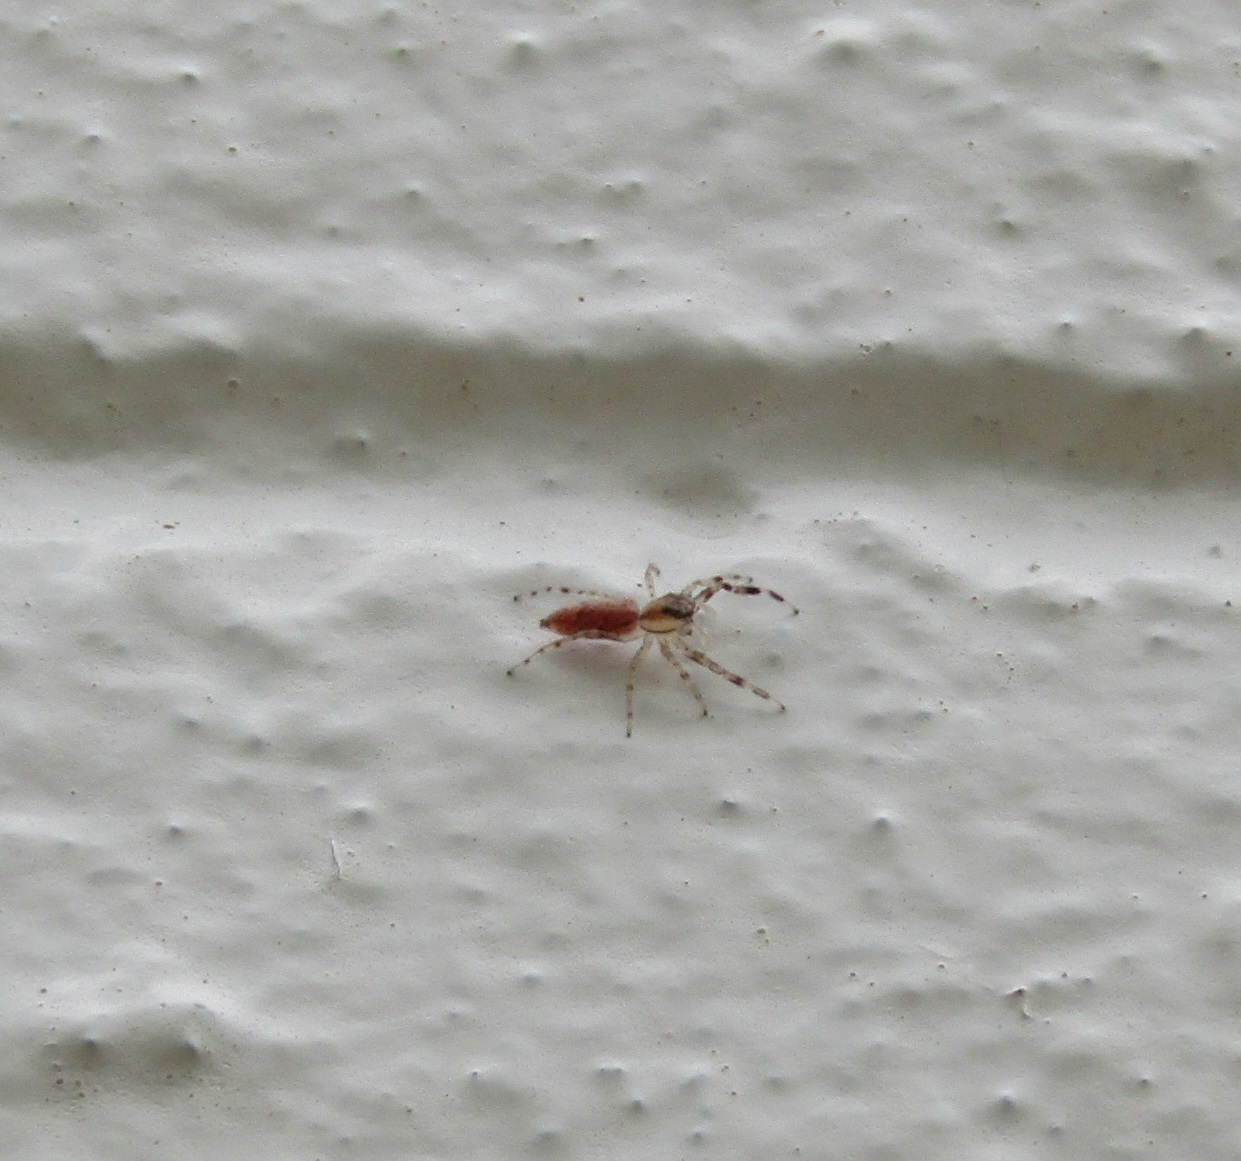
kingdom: Animalia
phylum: Arthropoda
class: Arachnida
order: Araneae
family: Salticidae
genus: Helpis
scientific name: Helpis minitabunda
